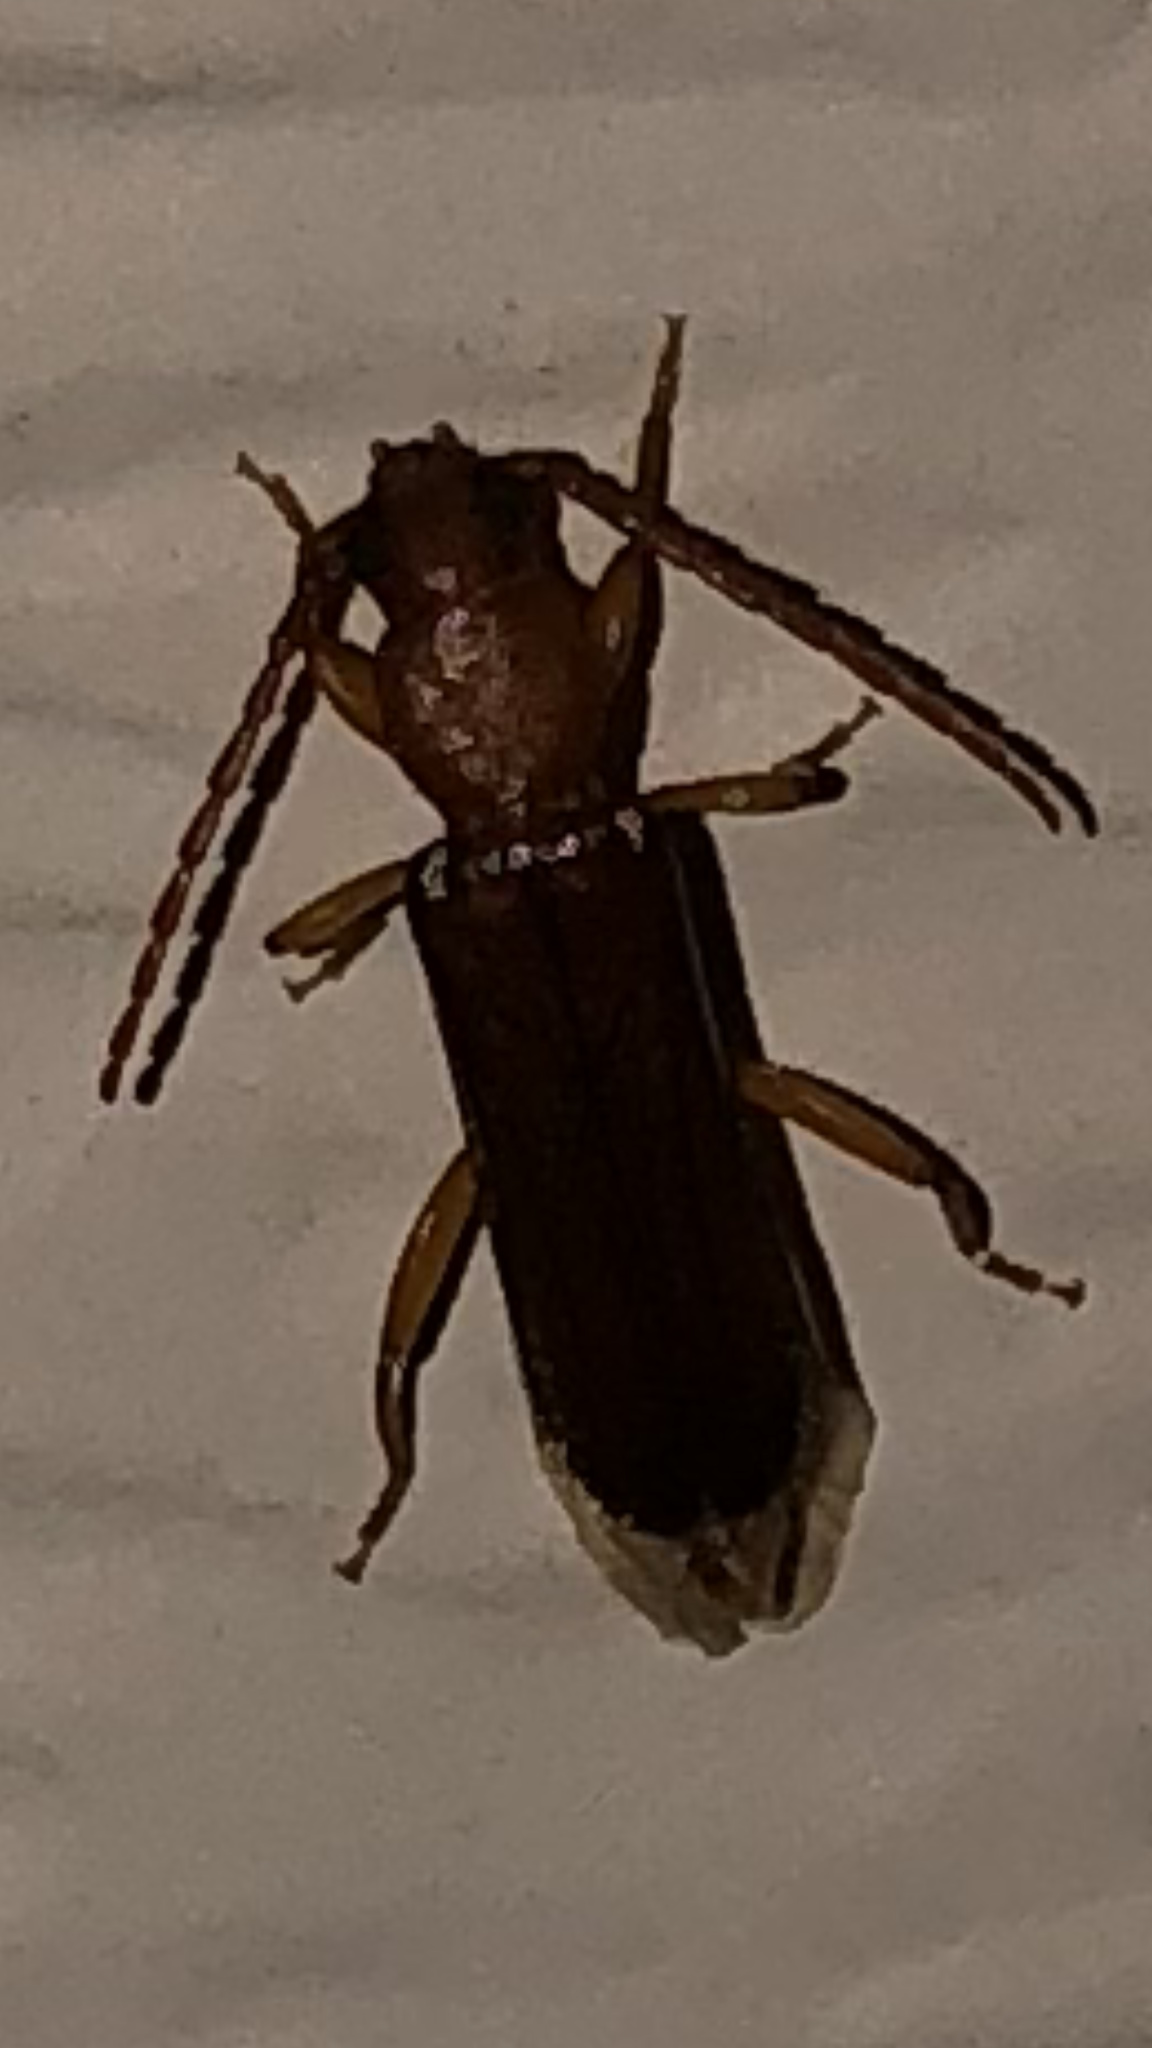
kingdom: Animalia
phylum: Arthropoda
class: Insecta
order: Coleoptera
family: Cerambycidae
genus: Smodicum
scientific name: Smodicum cucujiforme
